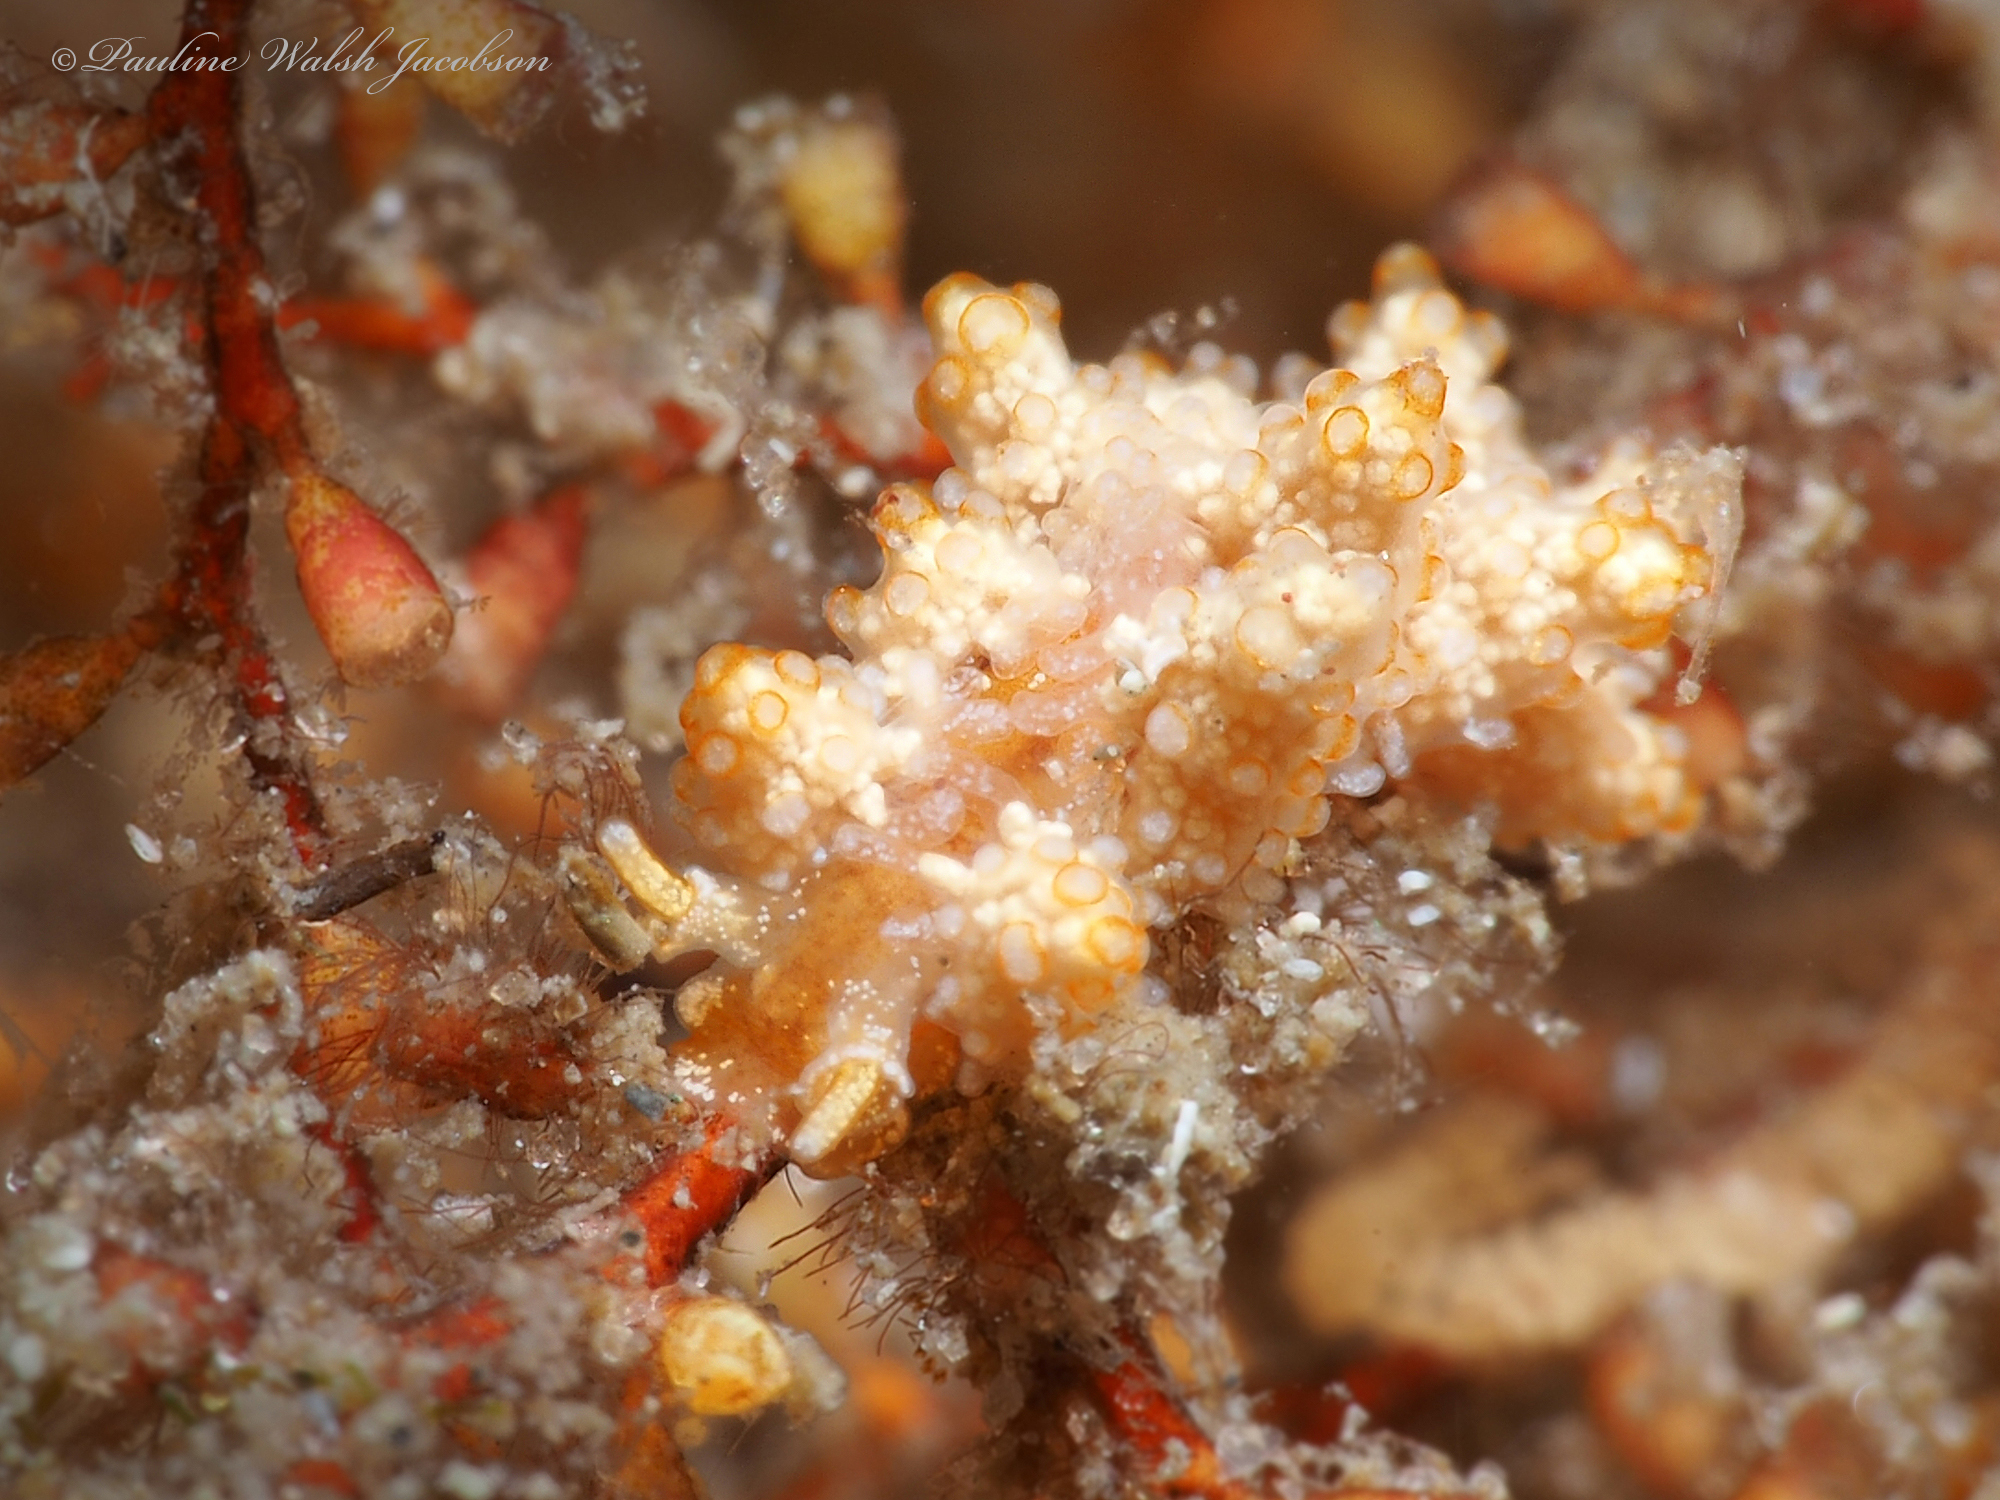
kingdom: Animalia
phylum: Mollusca
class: Gastropoda
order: Nudibranchia
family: Dotidae
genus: Doto
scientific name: Doto torrelavega
